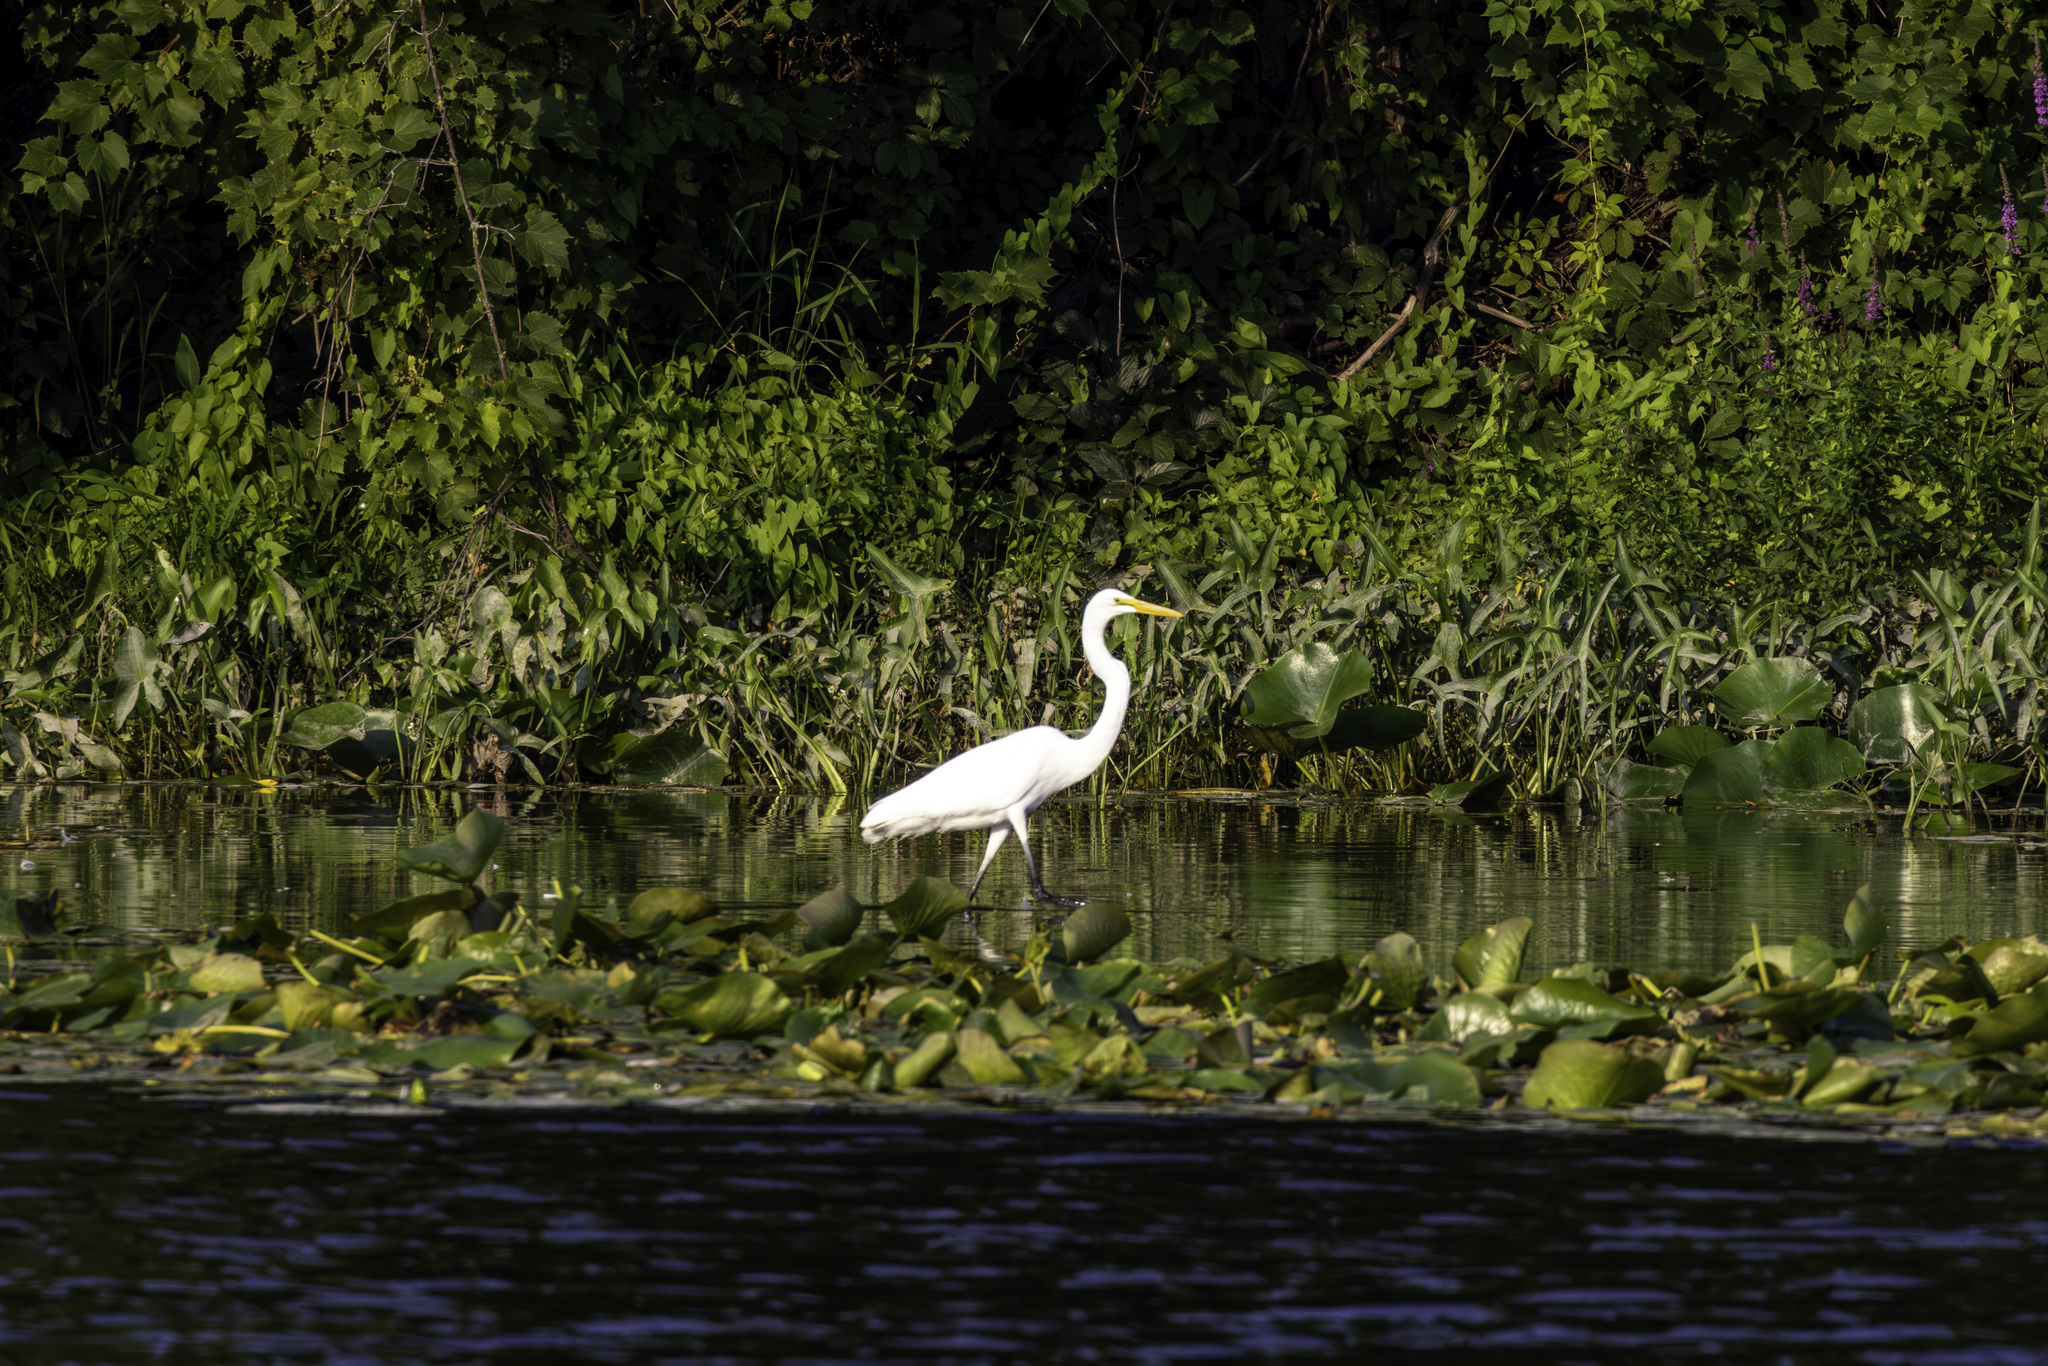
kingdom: Animalia
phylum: Chordata
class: Aves
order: Pelecaniformes
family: Ardeidae
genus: Ardea
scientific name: Ardea alba
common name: Great egret
